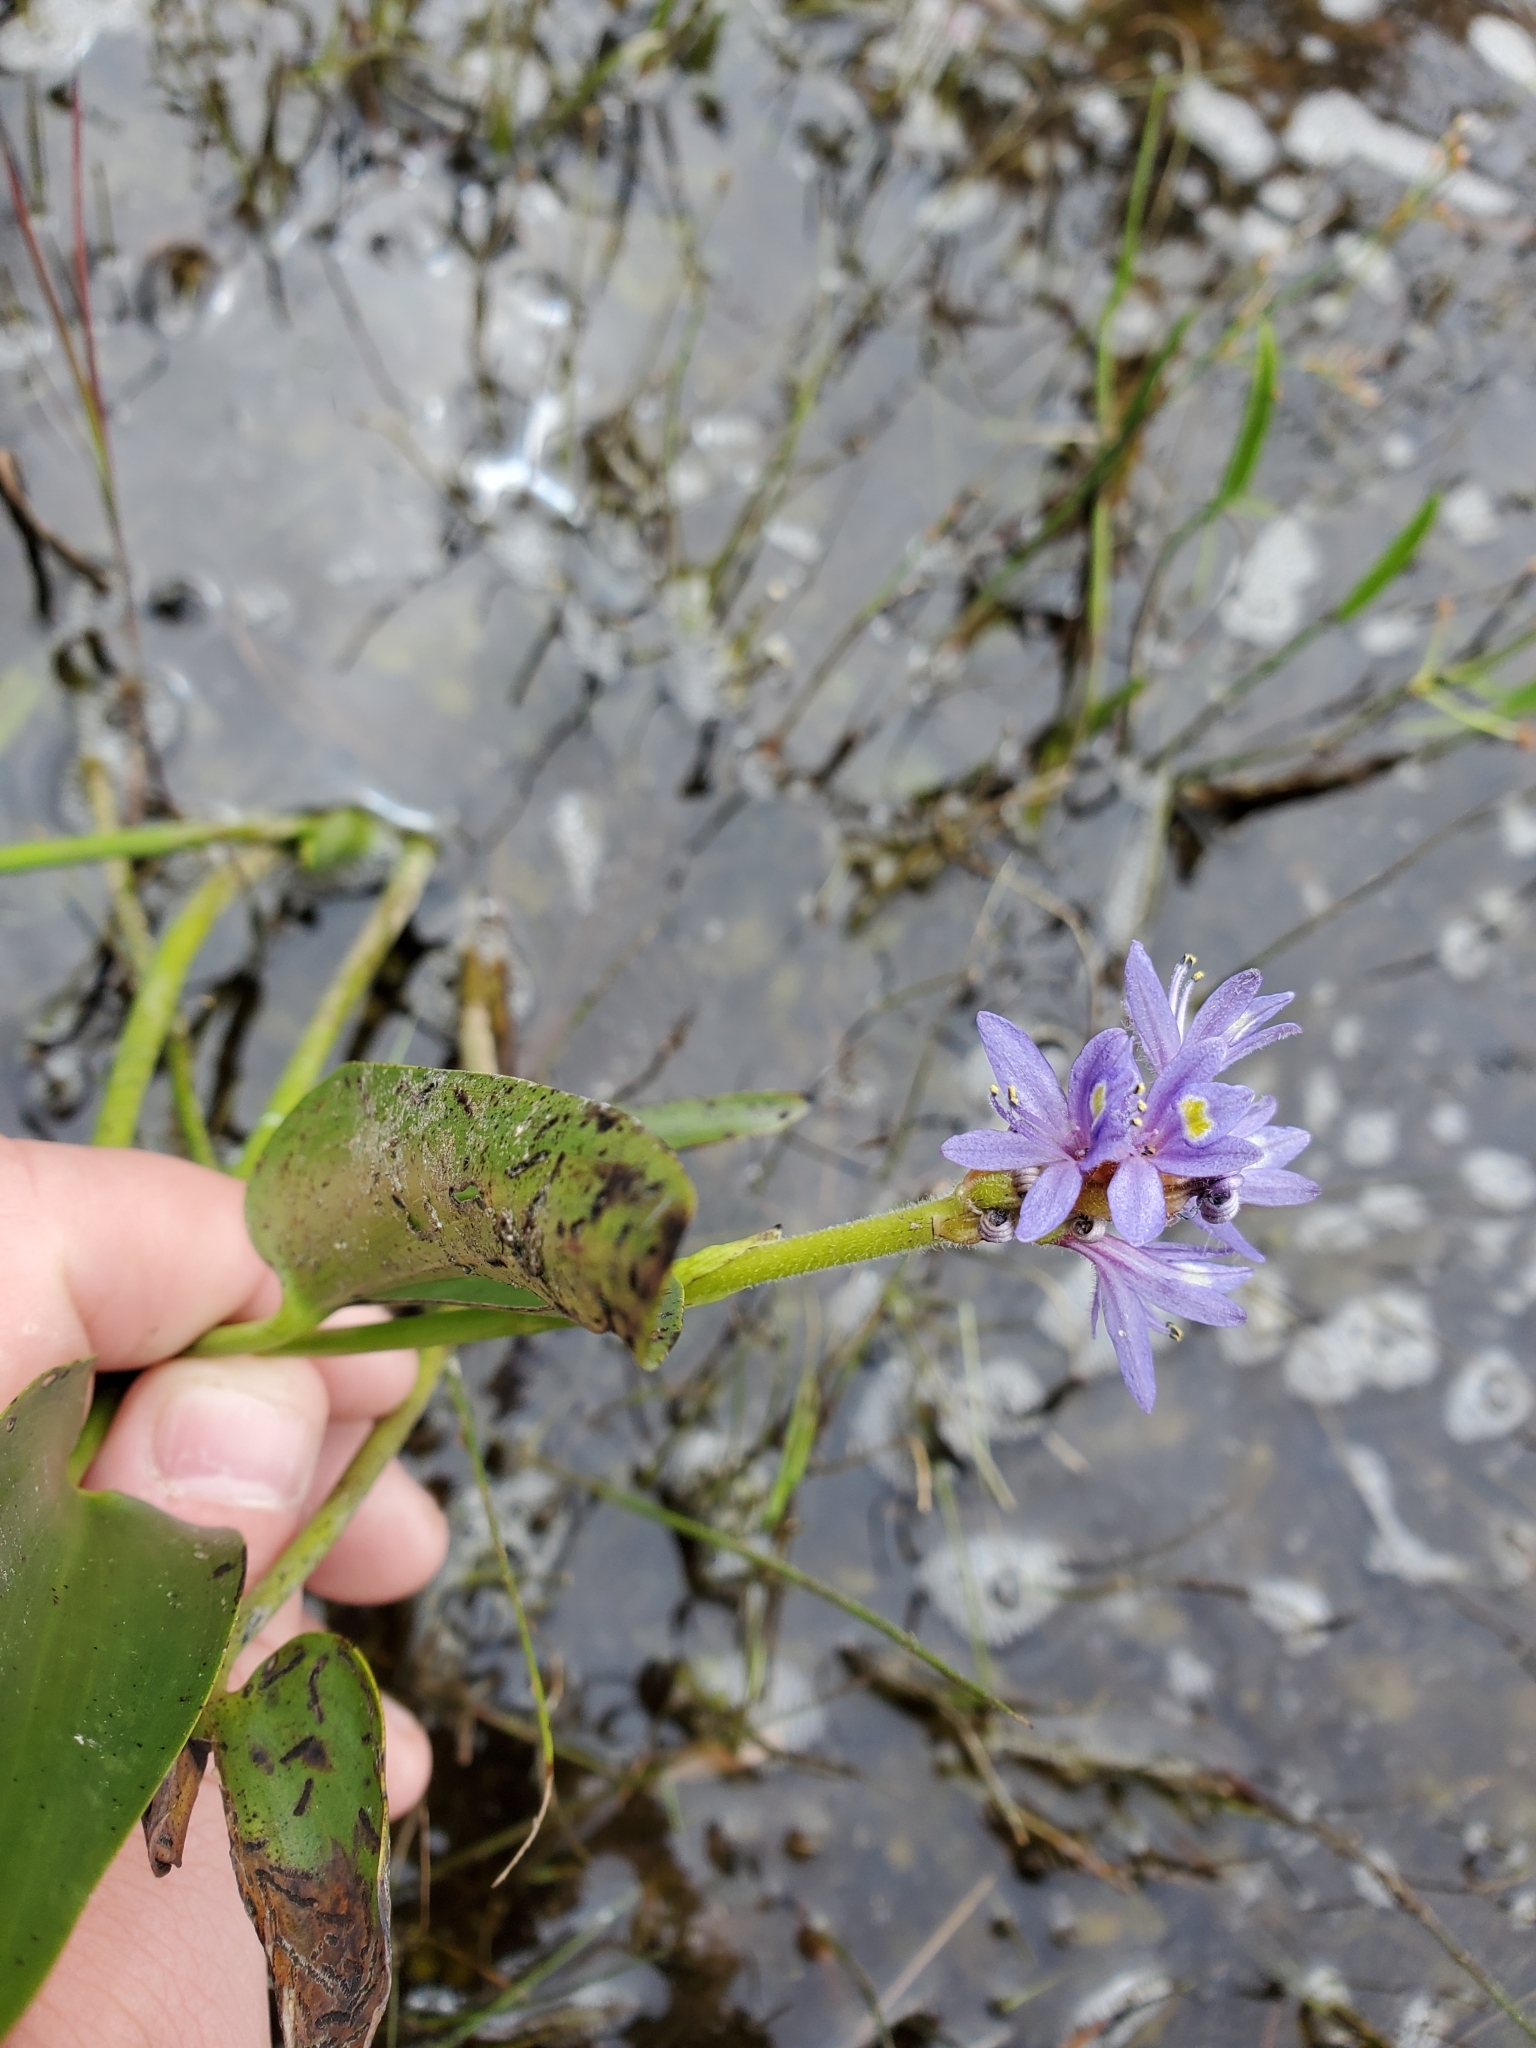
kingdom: Plantae
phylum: Tracheophyta
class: Liliopsida
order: Commelinales
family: Pontederiaceae
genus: Pontederia
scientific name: Pontederia cordata
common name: Pickerelweed
